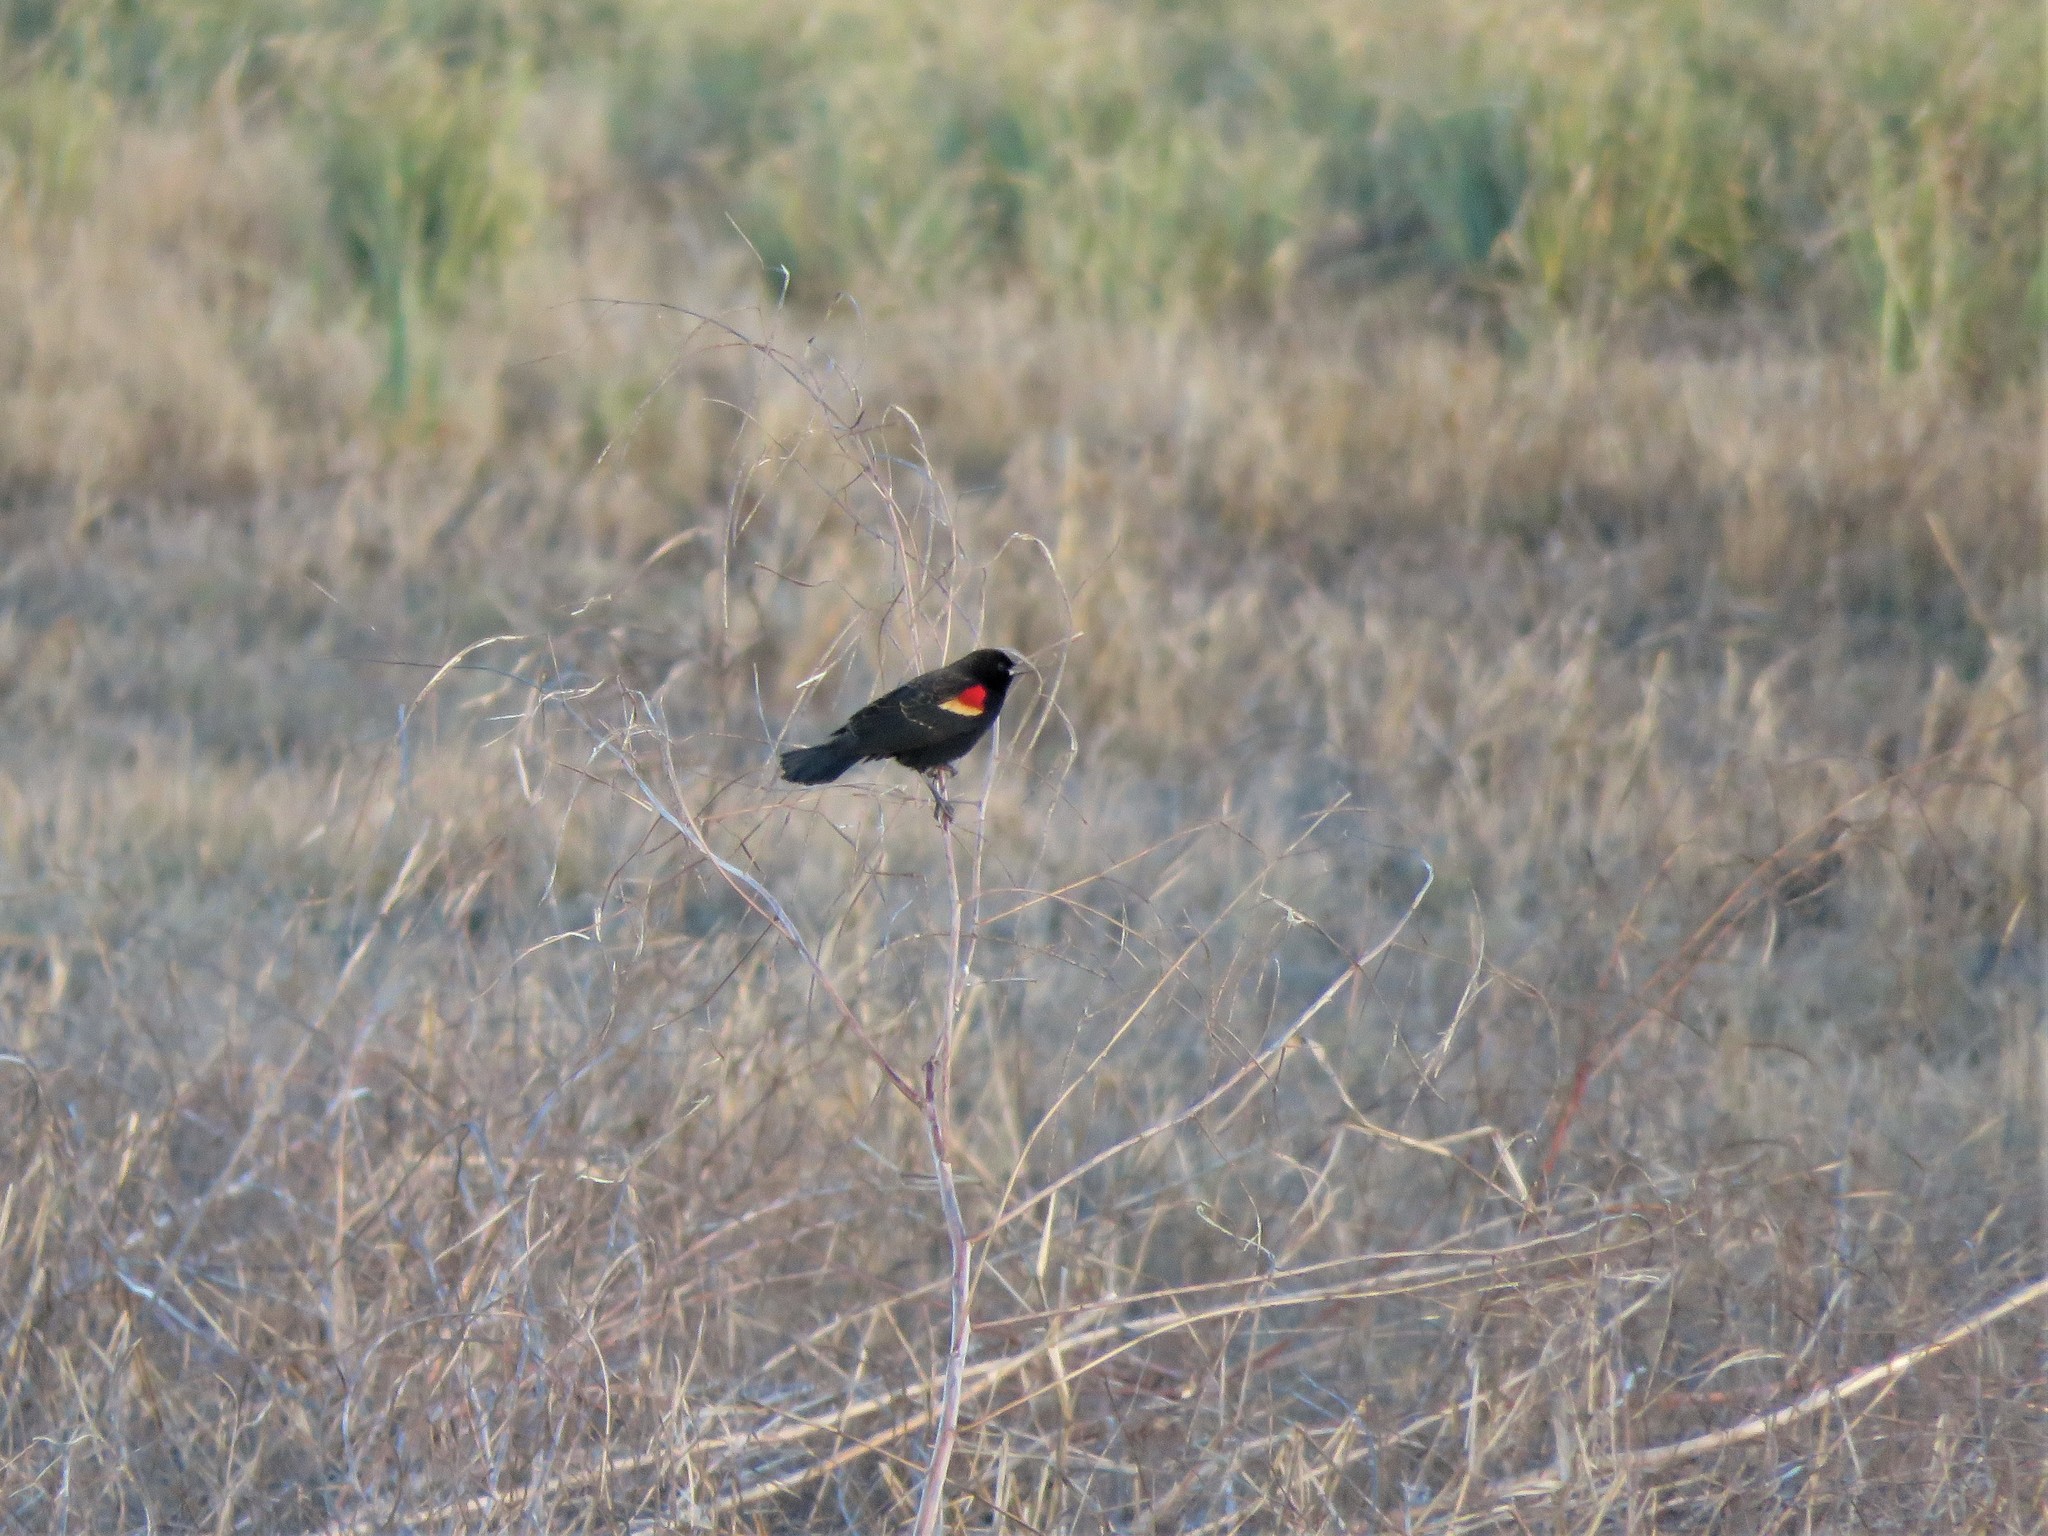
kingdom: Animalia
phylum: Chordata
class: Aves
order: Passeriformes
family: Icteridae
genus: Agelaius
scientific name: Agelaius phoeniceus
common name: Red-winged blackbird
